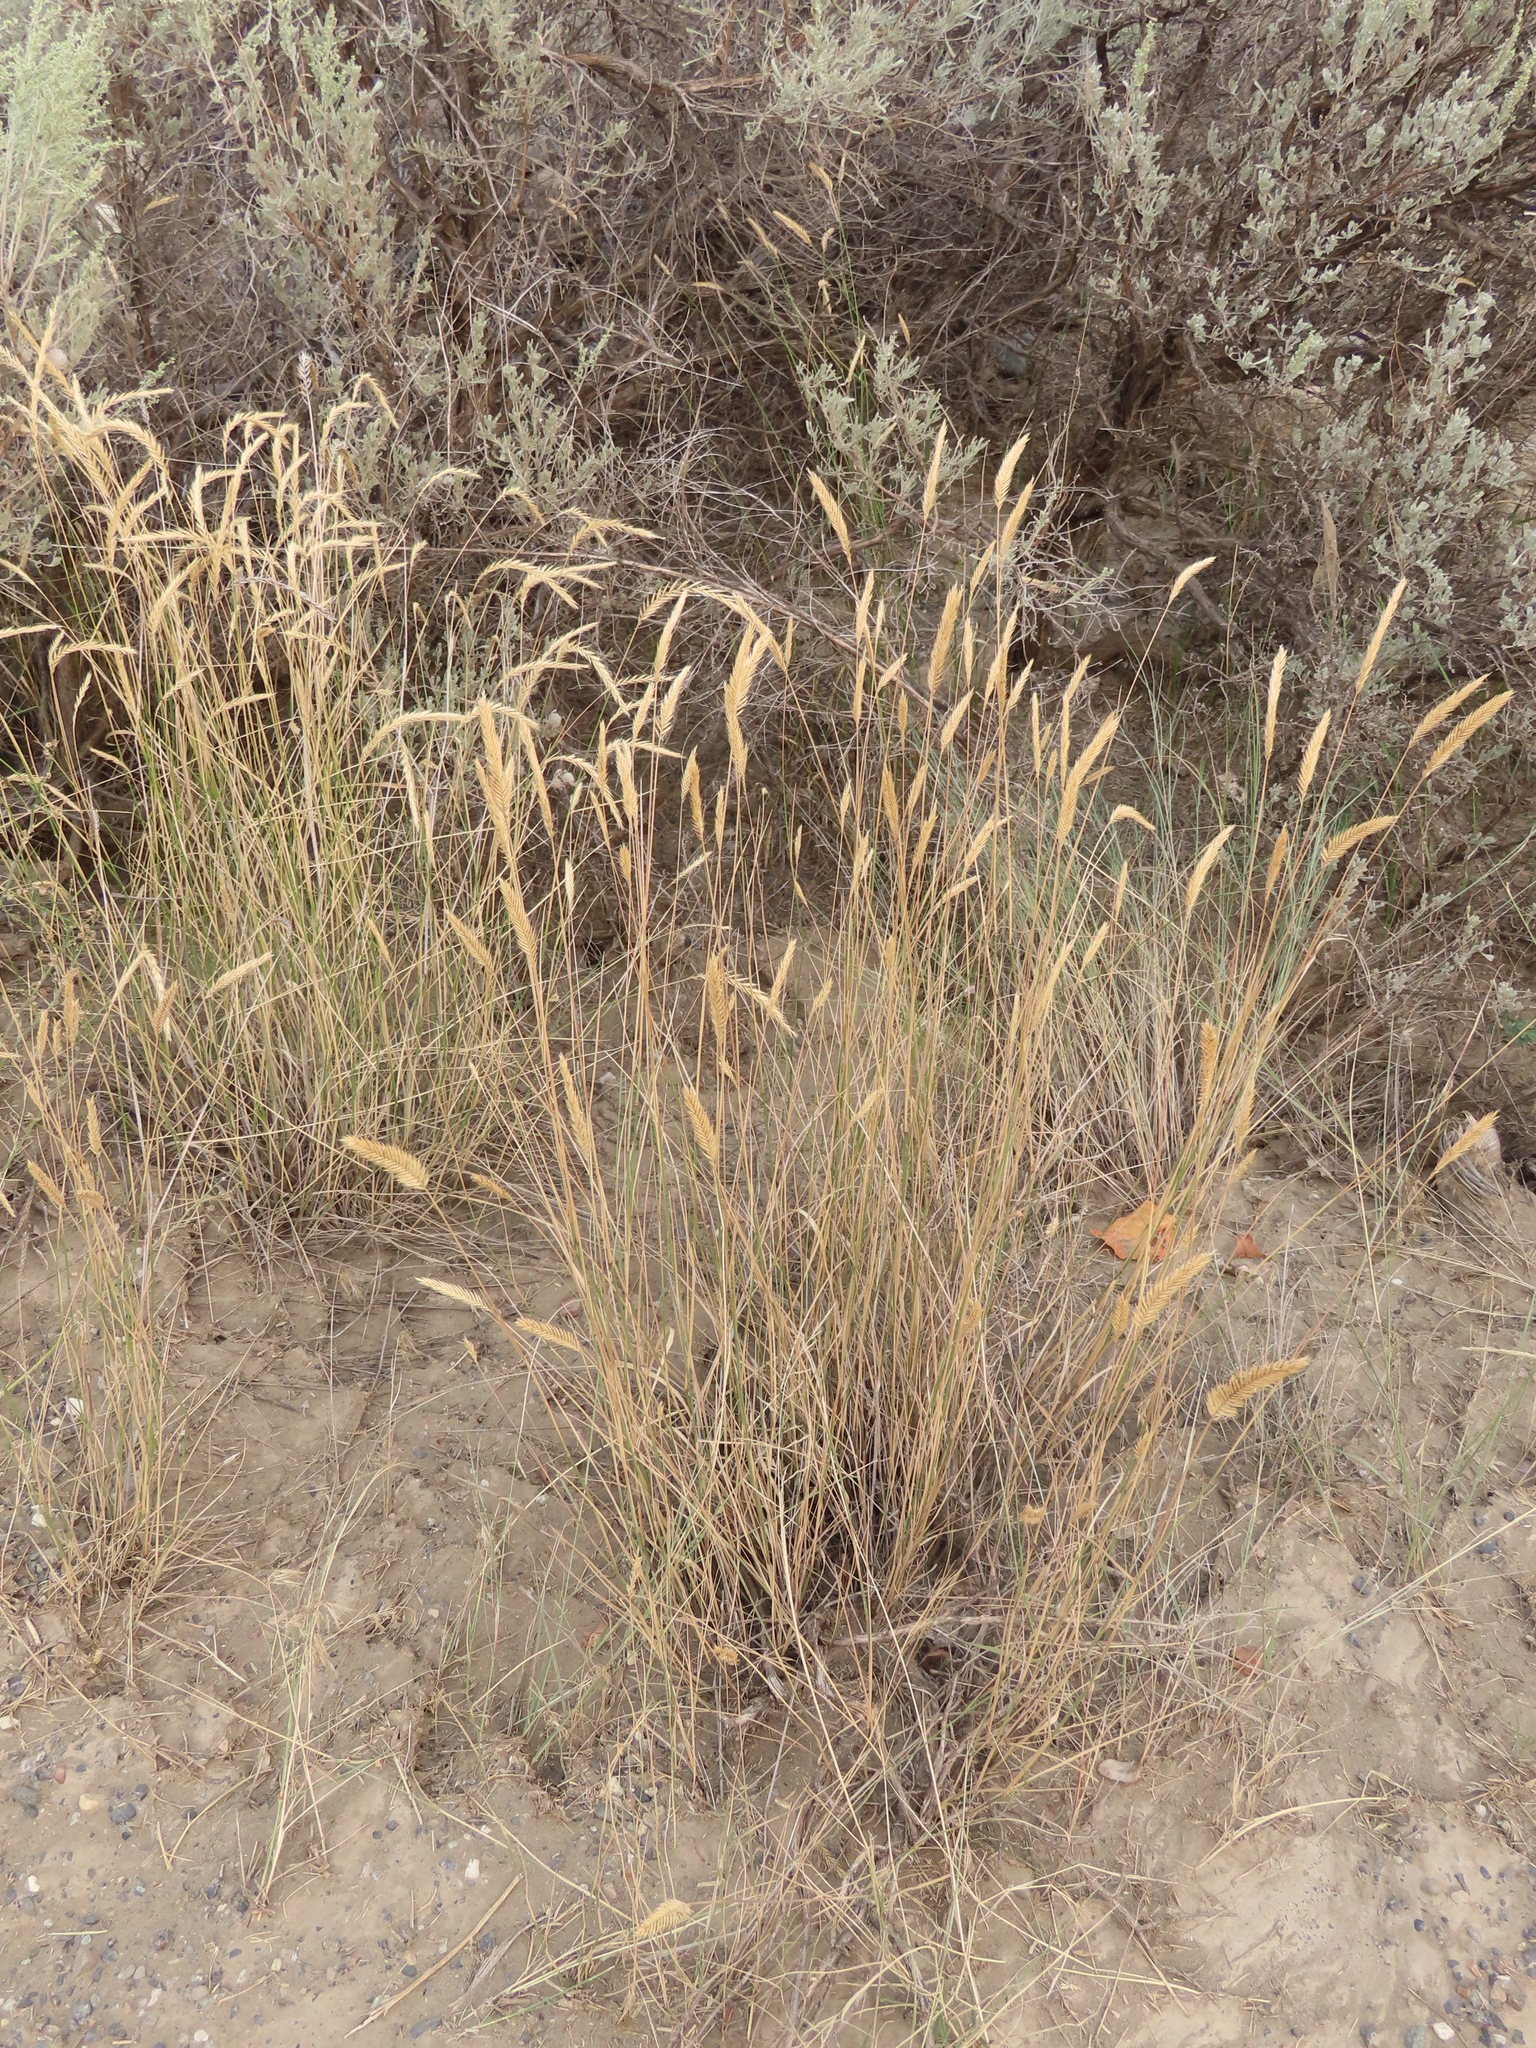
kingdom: Plantae
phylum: Tracheophyta
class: Liliopsida
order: Poales
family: Poaceae
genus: Agropyron
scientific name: Agropyron cristatum
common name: Crested wheatgrass
